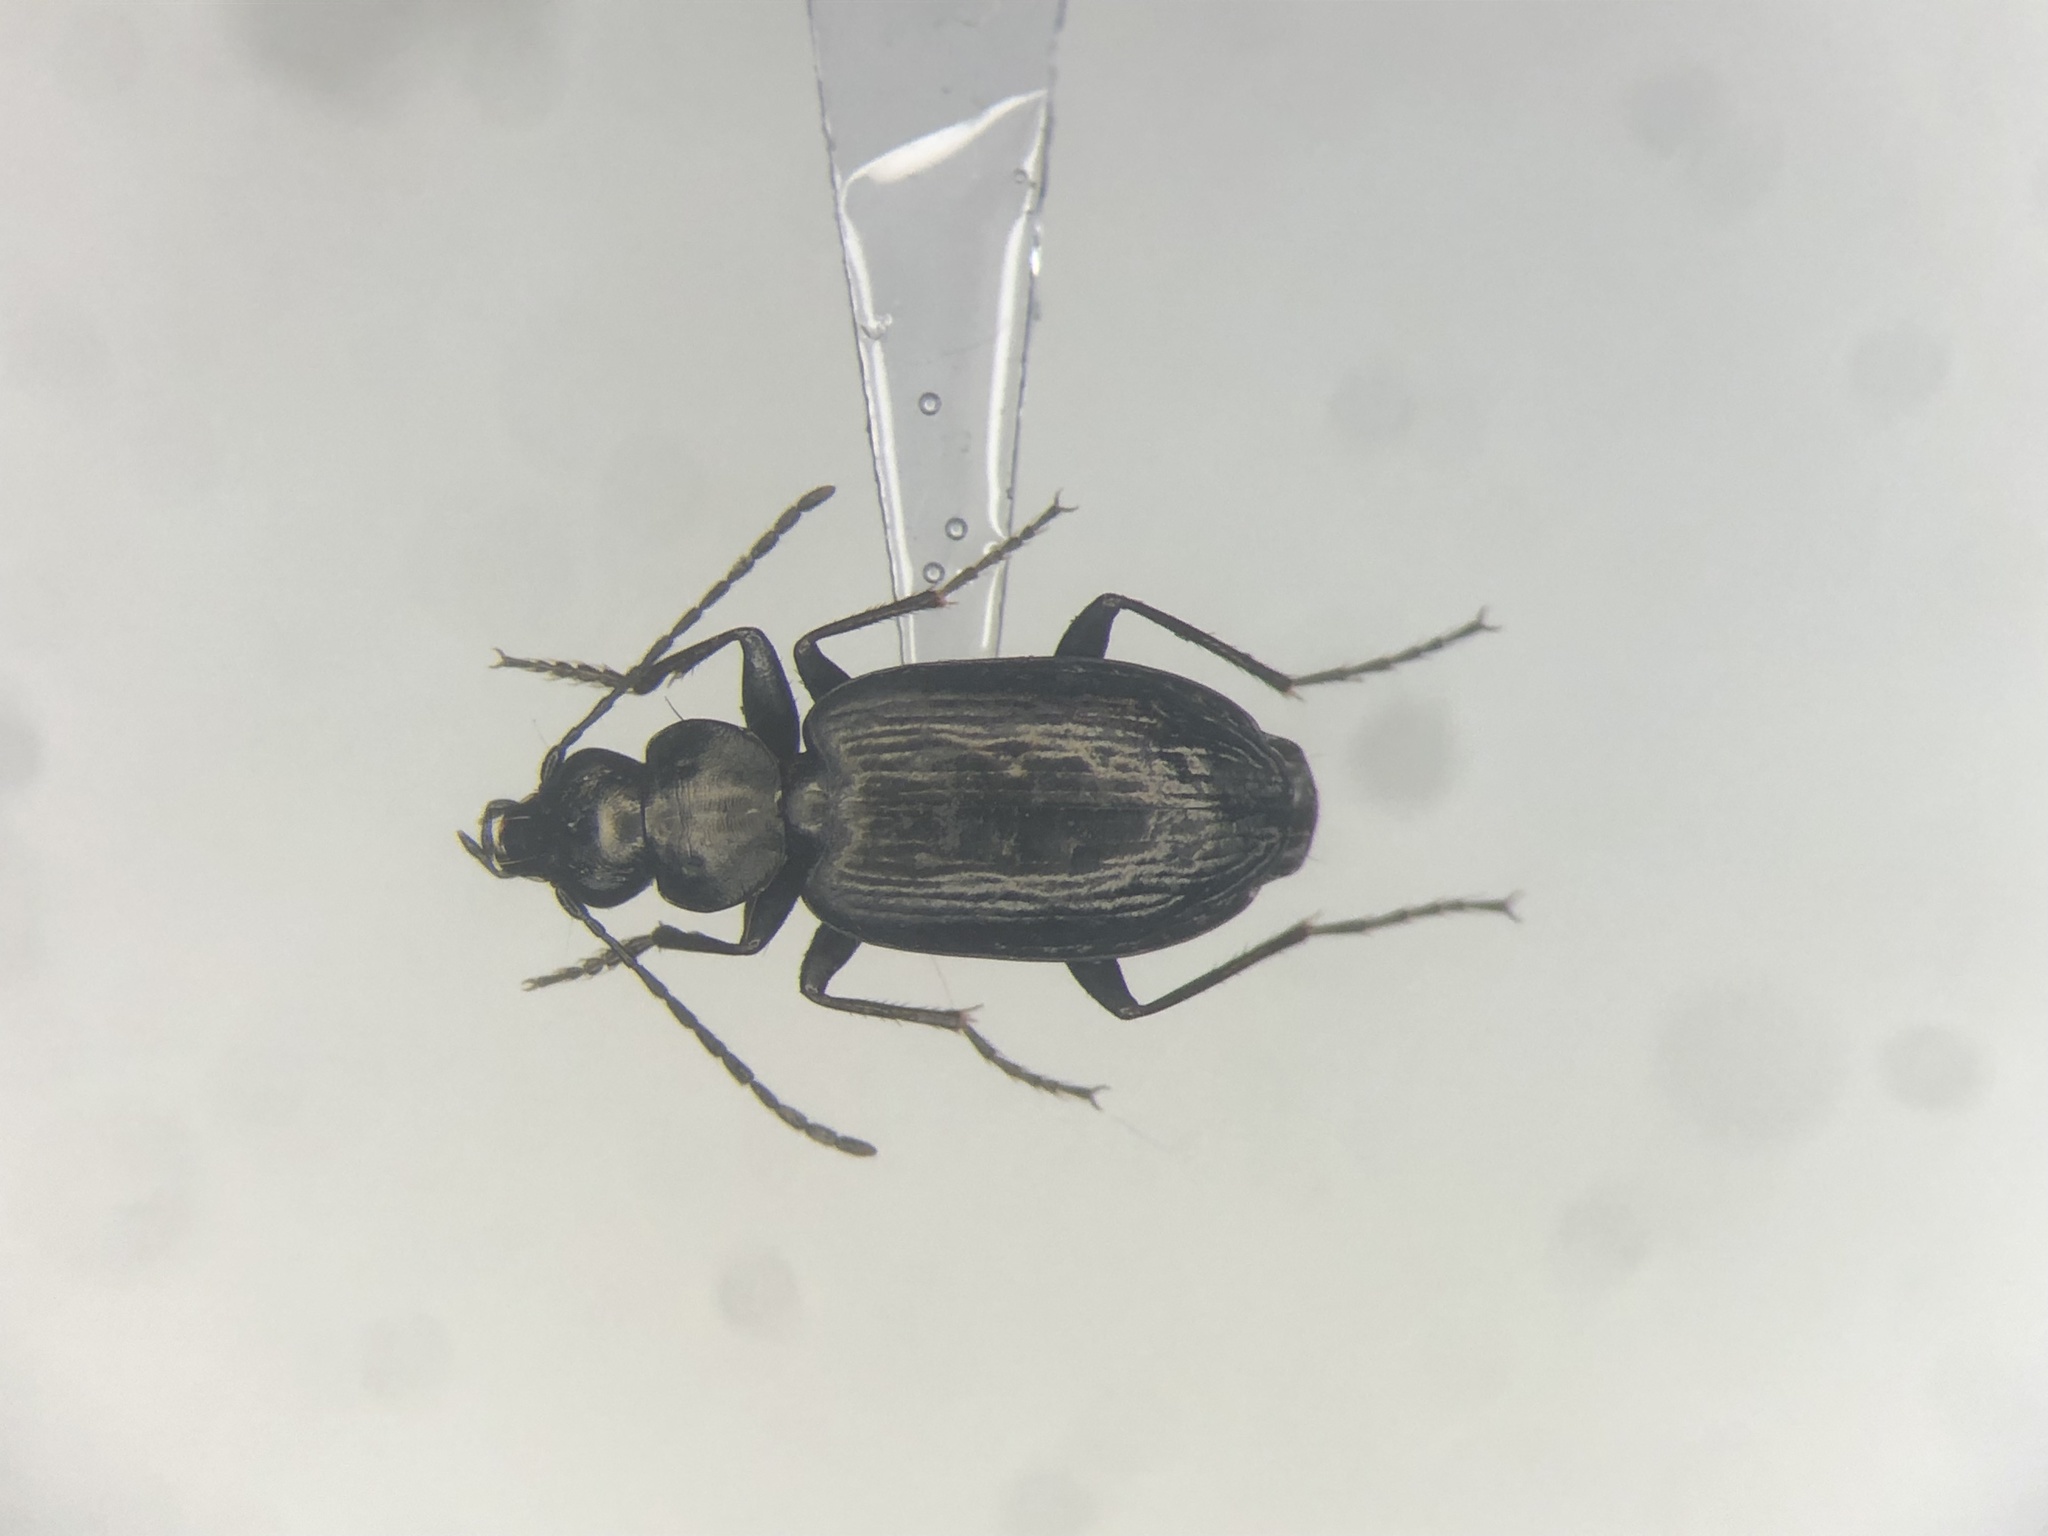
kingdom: Animalia
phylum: Arthropoda
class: Insecta
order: Coleoptera
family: Carabidae
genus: Sericoda
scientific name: Sericoda quadripunctata
